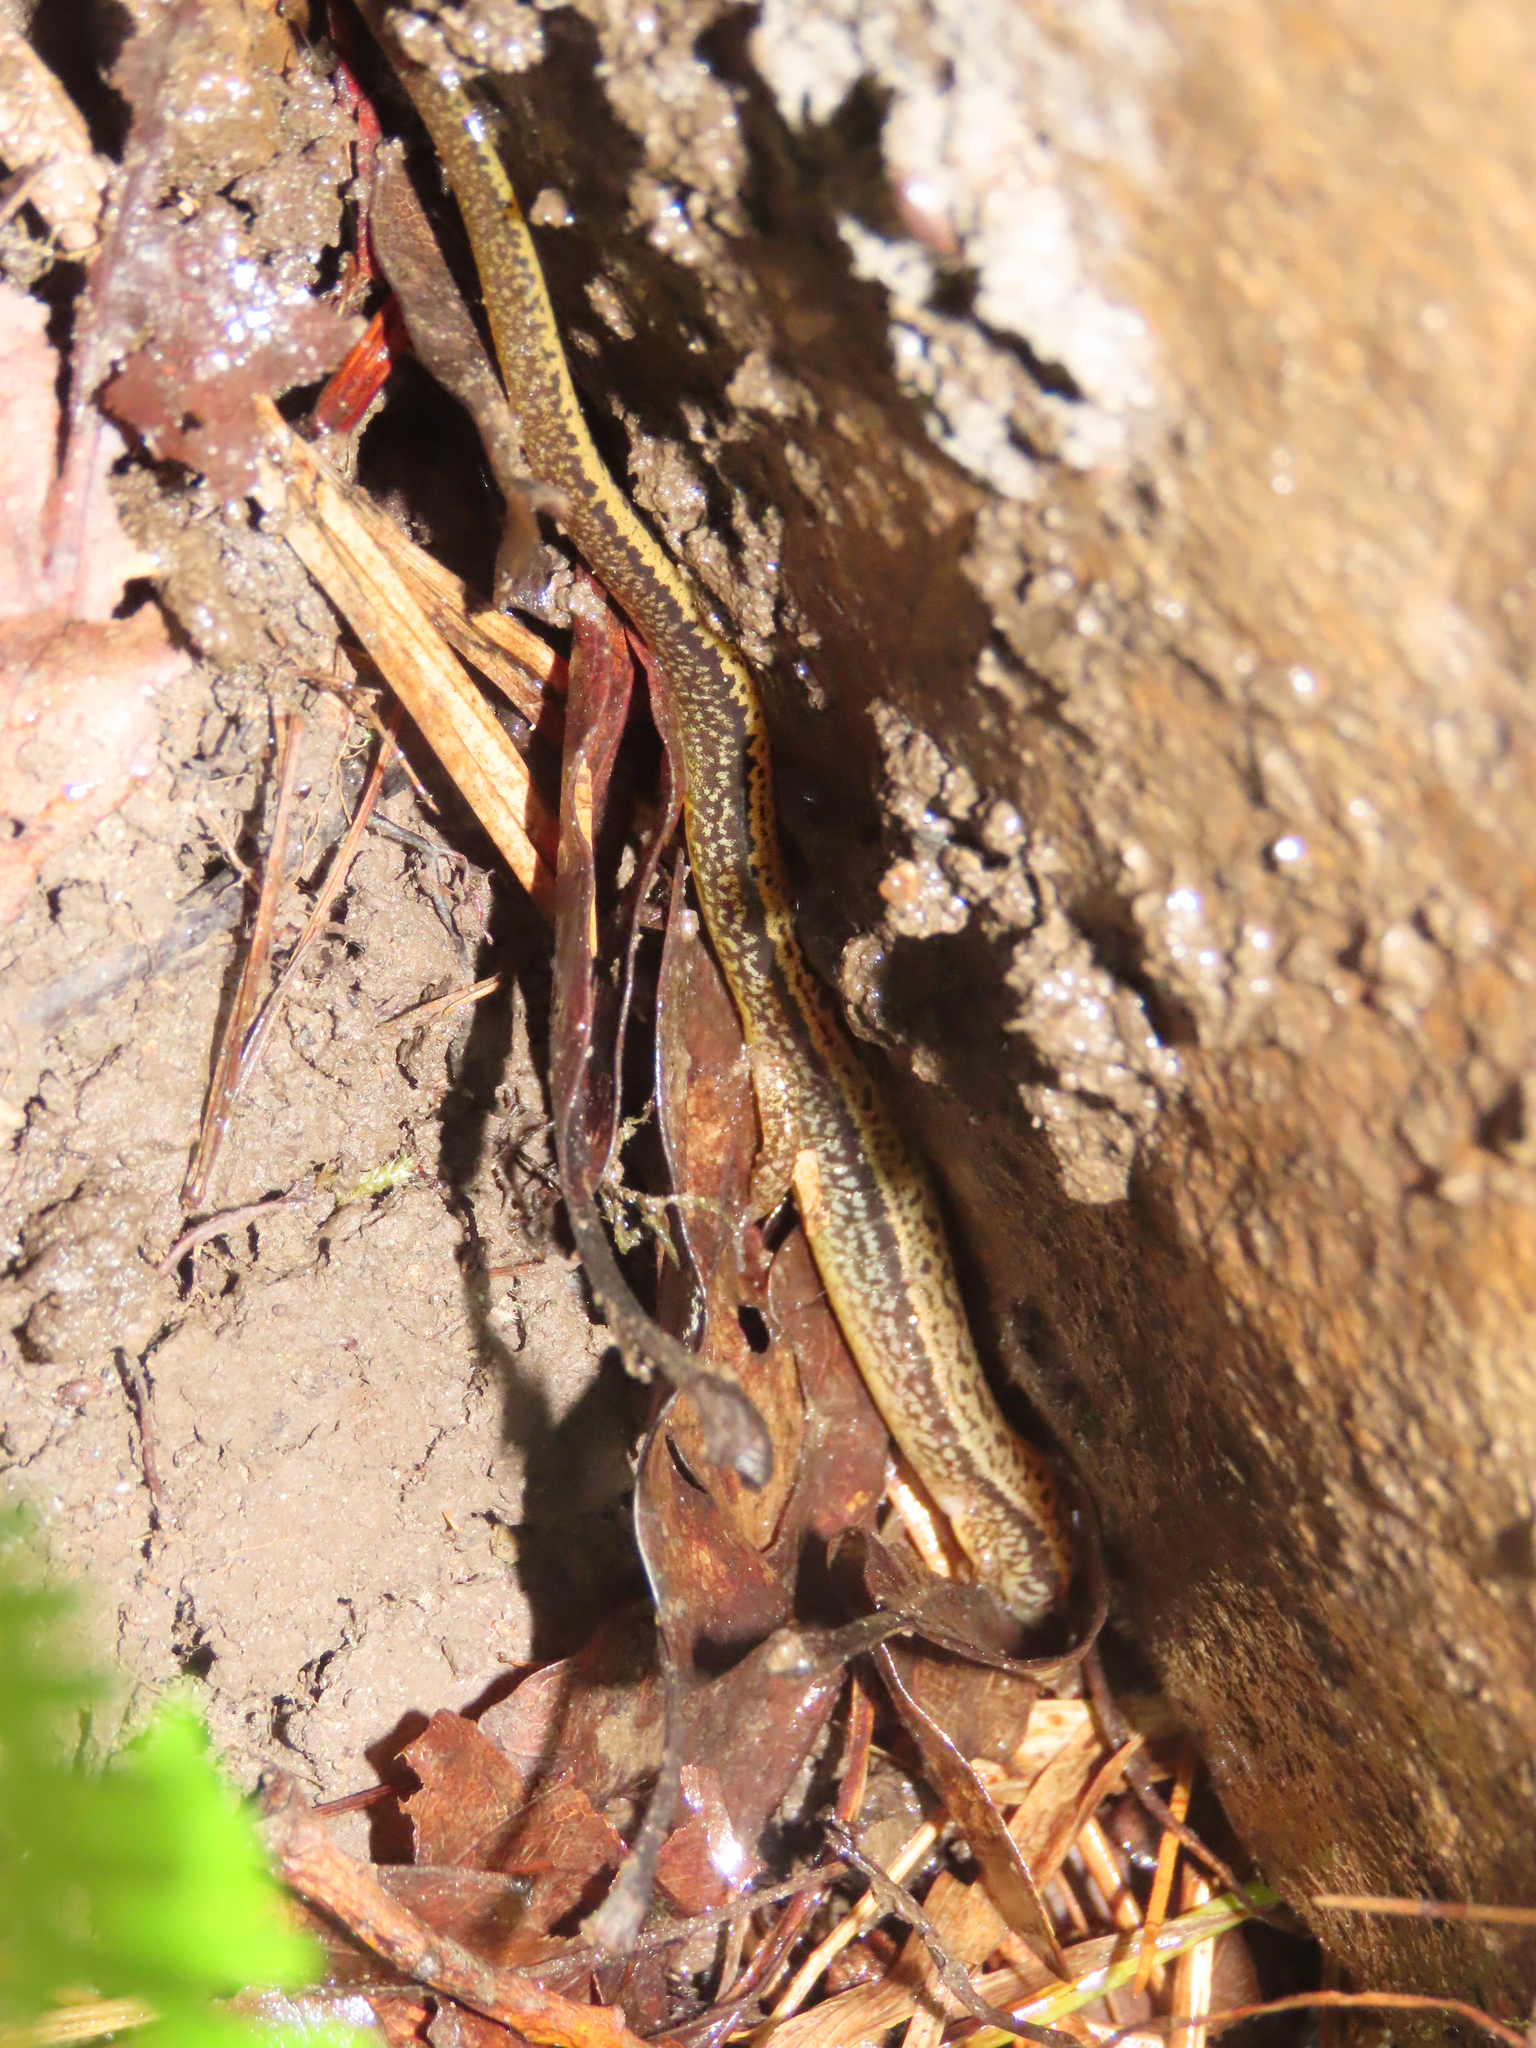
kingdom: Animalia
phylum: Chordata
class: Amphibia
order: Caudata
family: Plethodontidae
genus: Eurycea
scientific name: Eurycea bislineata
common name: Northern two-lined salamander
